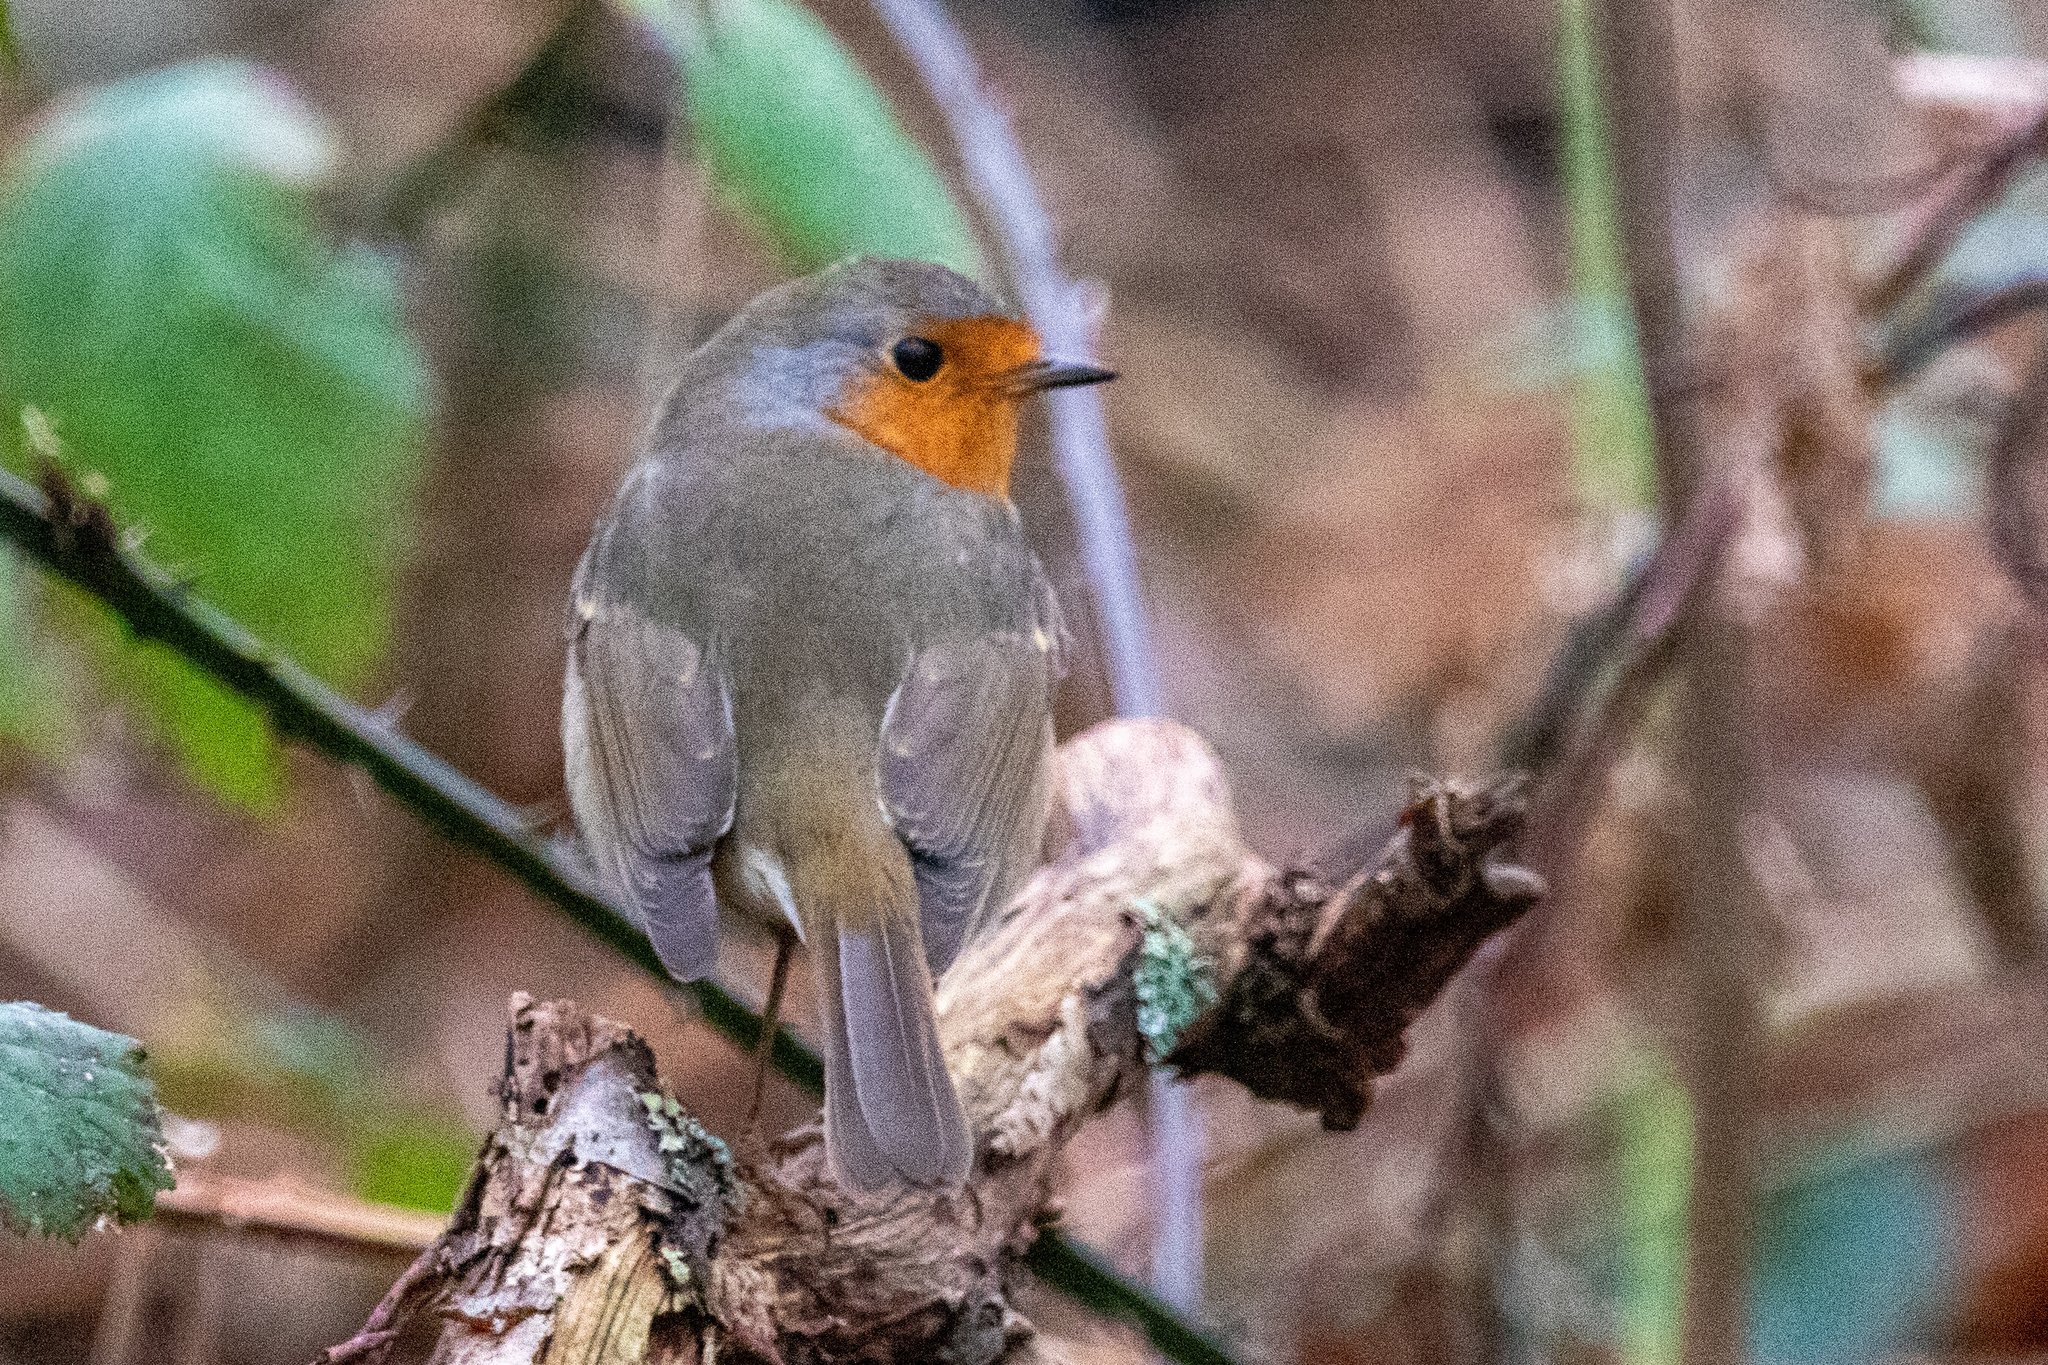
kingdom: Animalia
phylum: Chordata
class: Aves
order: Passeriformes
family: Muscicapidae
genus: Erithacus
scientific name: Erithacus rubecula
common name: European robin
